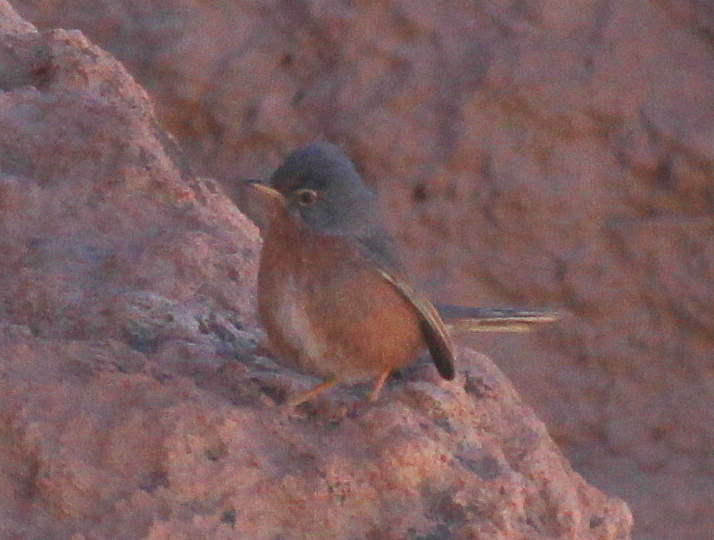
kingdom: Animalia
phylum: Chordata
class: Aves
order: Passeriformes
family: Sylviidae
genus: Sylvia
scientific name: Sylvia deserticola
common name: Tristram's warbler
